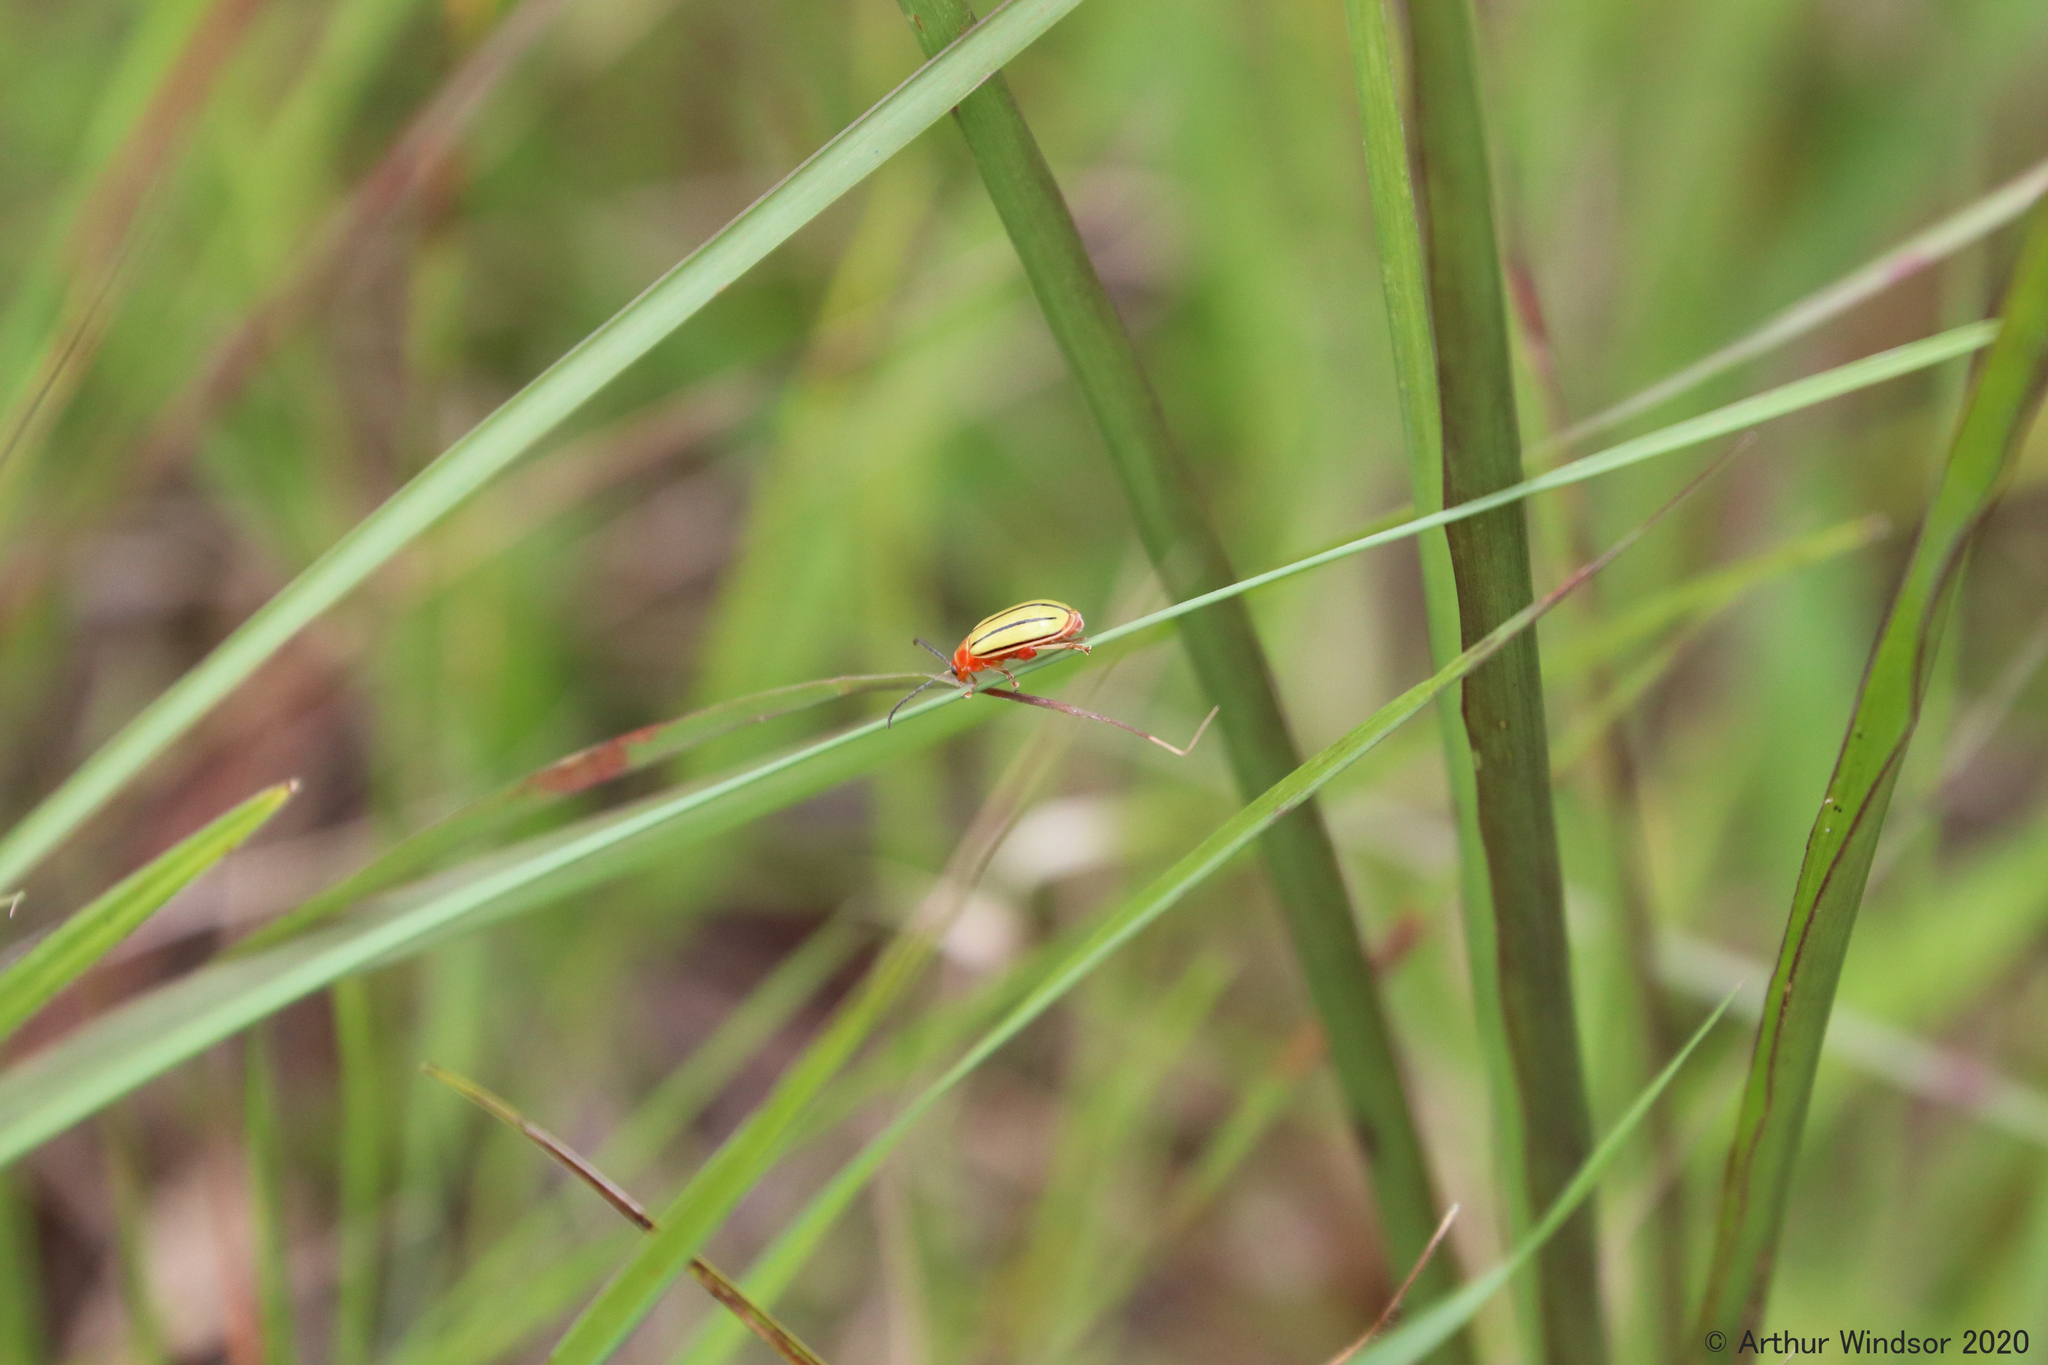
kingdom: Animalia
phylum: Arthropoda
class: Insecta
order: Coleoptera
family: Chrysomelidae
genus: Disonycha
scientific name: Disonycha
